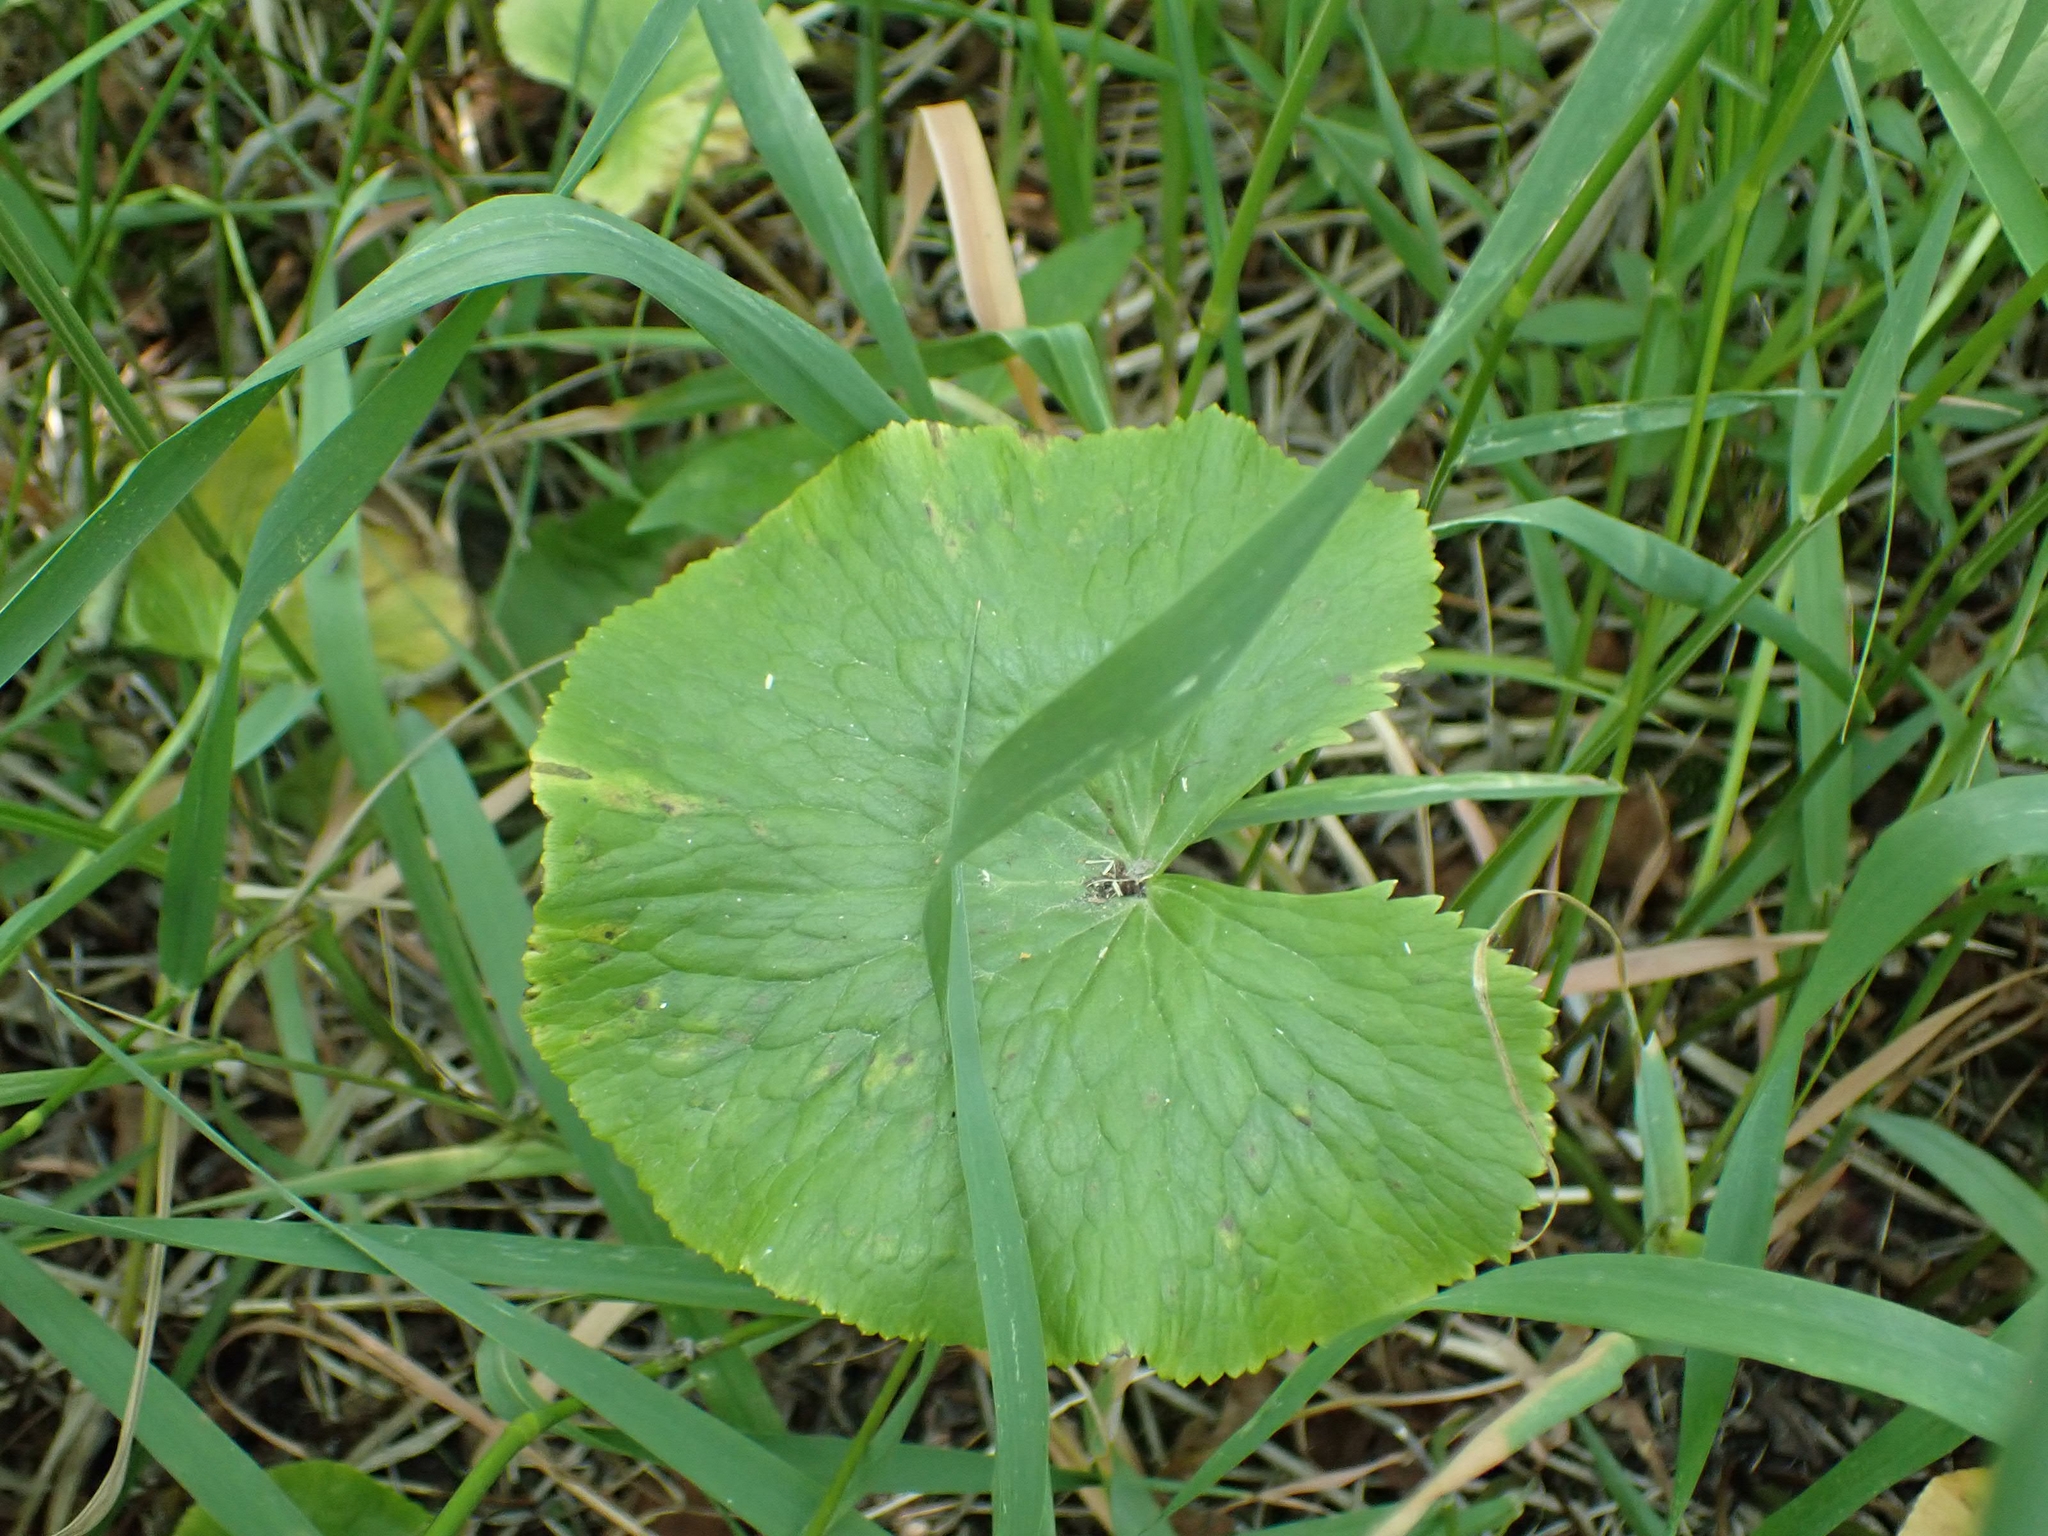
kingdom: Plantae
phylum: Tracheophyta
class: Magnoliopsida
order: Ranunculales
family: Ranunculaceae
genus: Caltha
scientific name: Caltha palustris
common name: Marsh marigold
